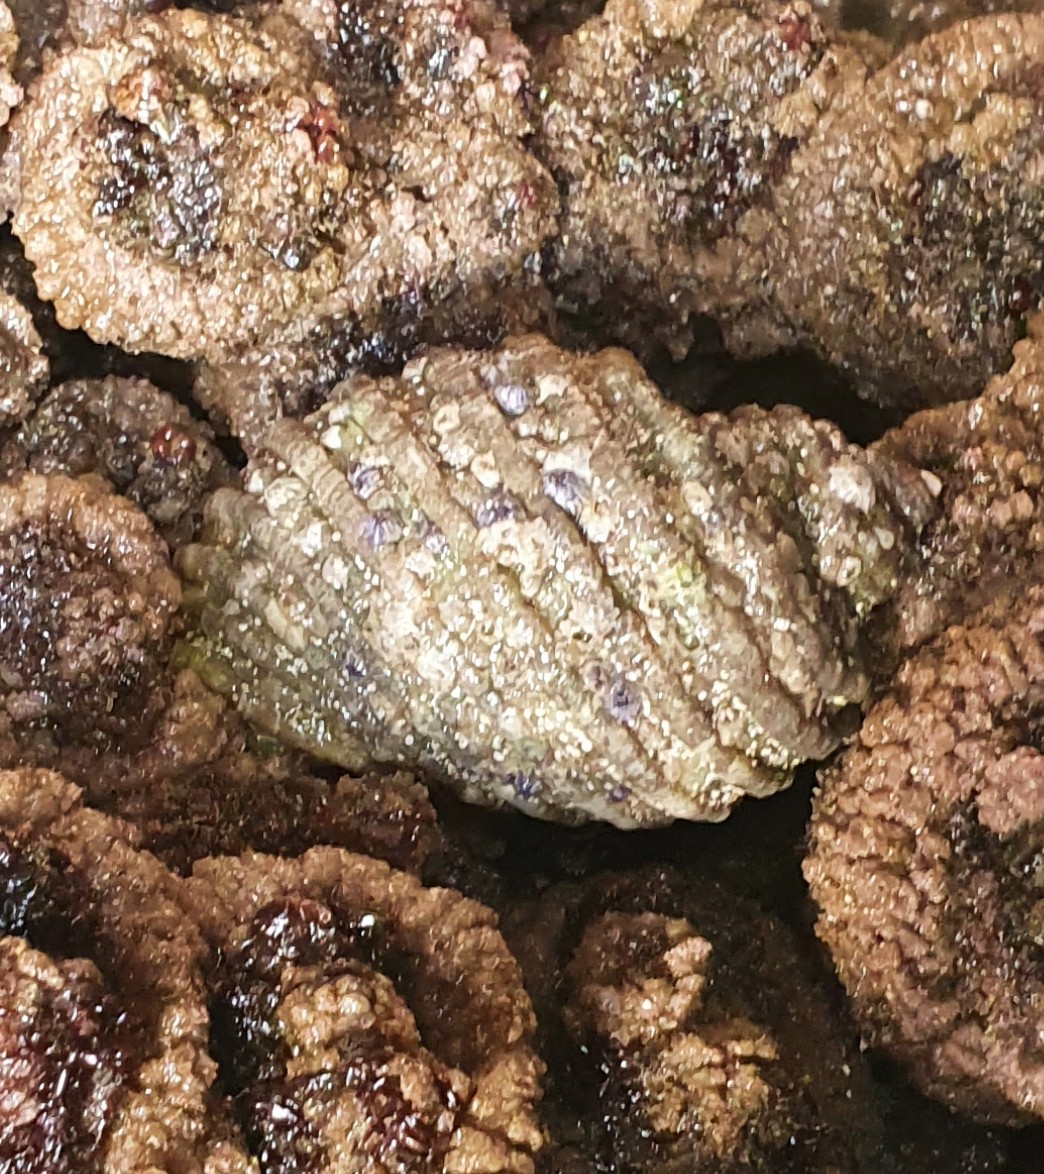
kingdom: Animalia
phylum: Mollusca
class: Gastropoda
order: Neogastropoda
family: Muricidae
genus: Dicathais
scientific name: Dicathais orbita
